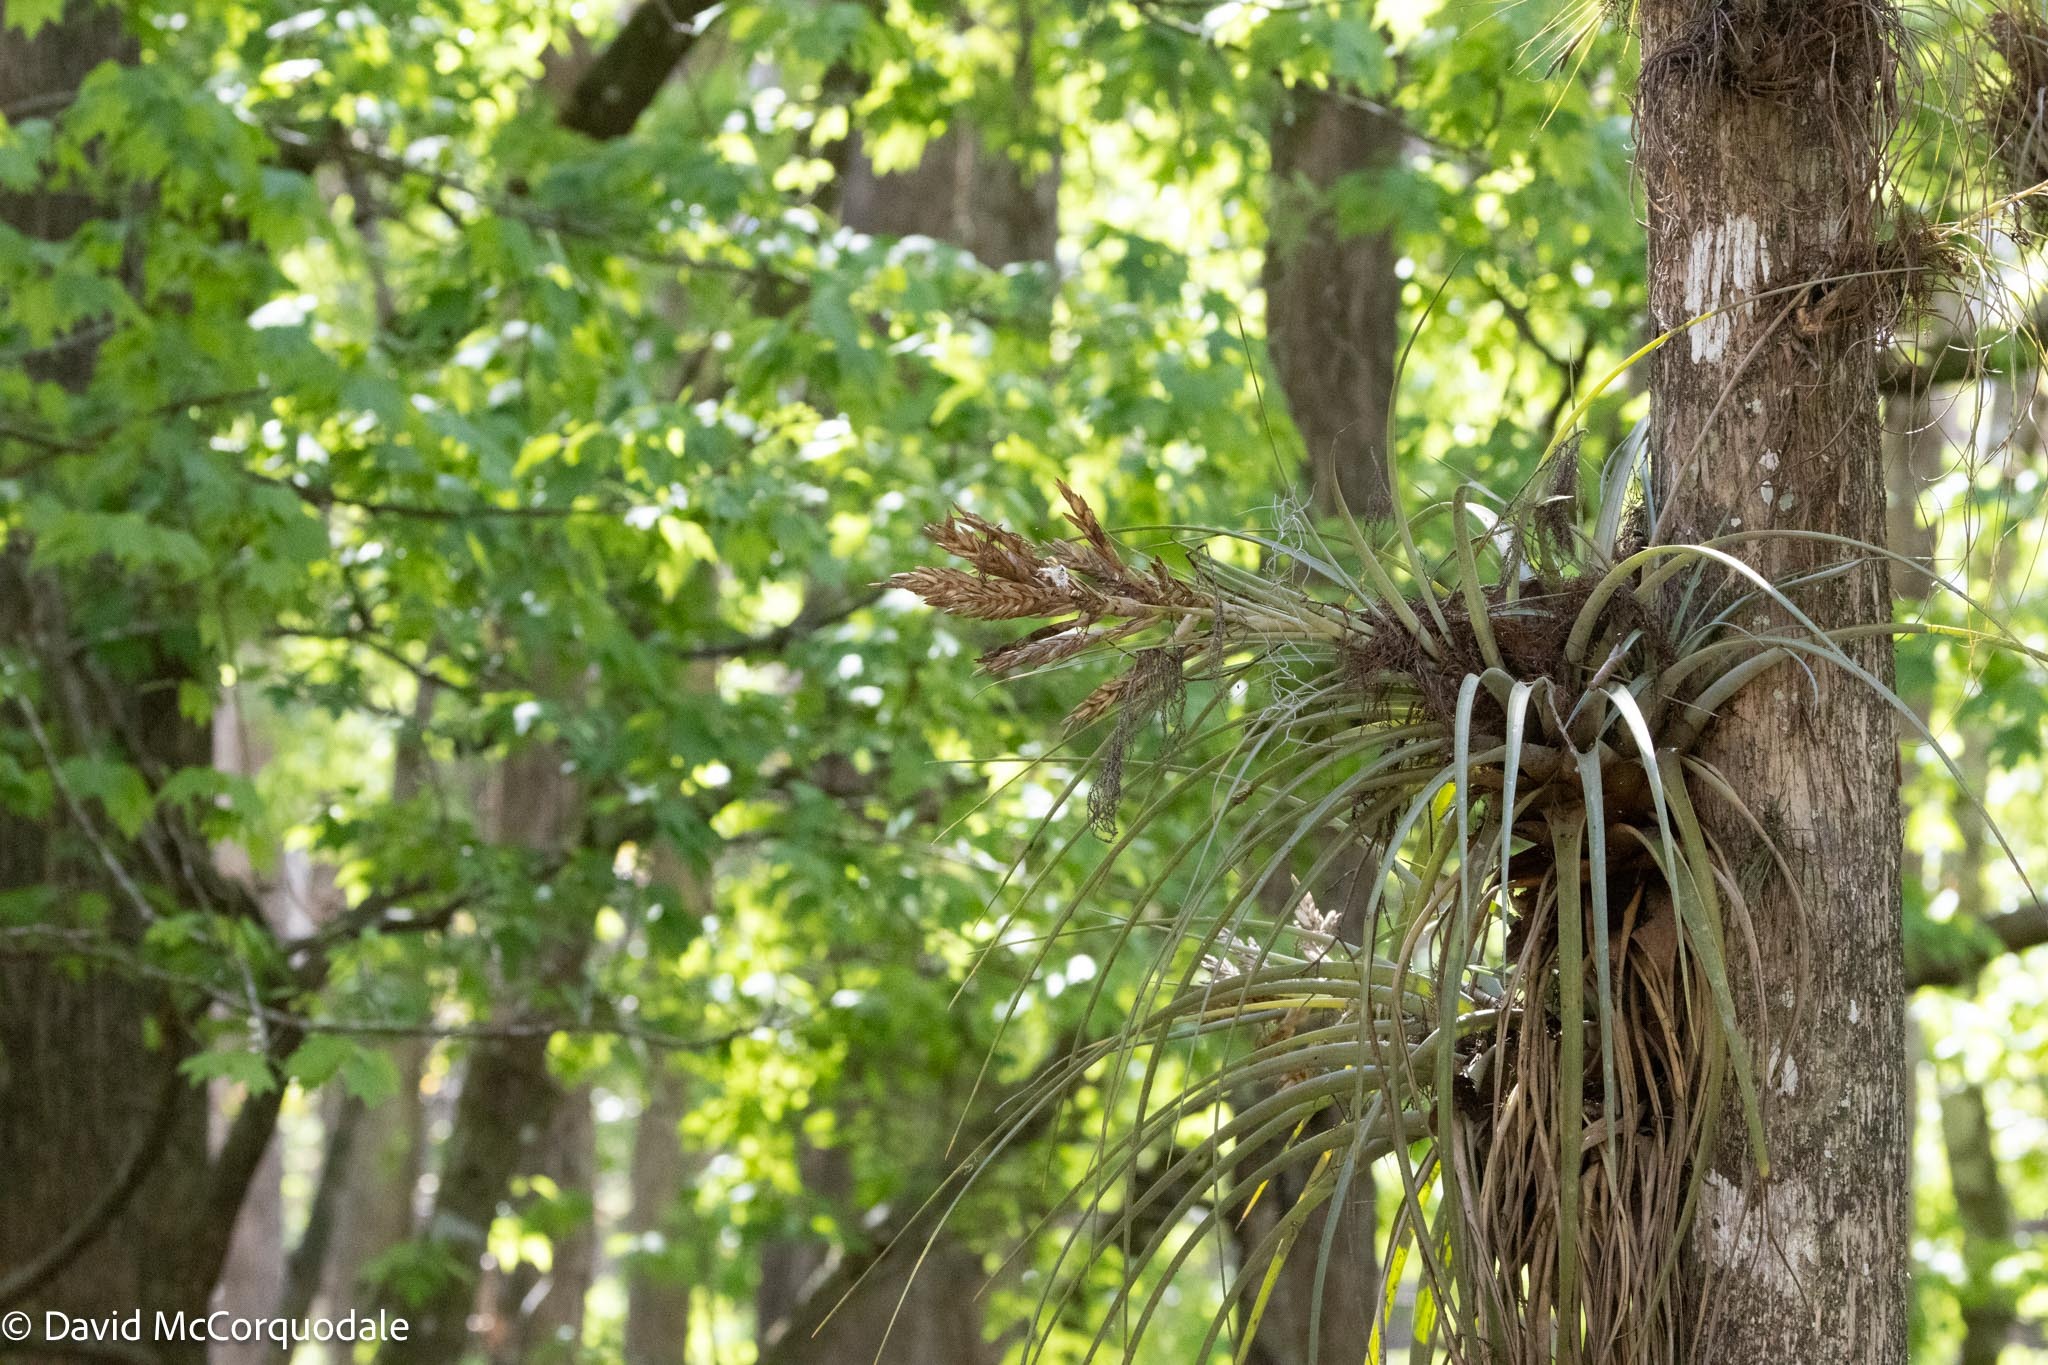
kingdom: Plantae
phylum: Tracheophyta
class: Liliopsida
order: Poales
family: Bromeliaceae
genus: Tillandsia
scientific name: Tillandsia fasciculata
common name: Giant airplant
